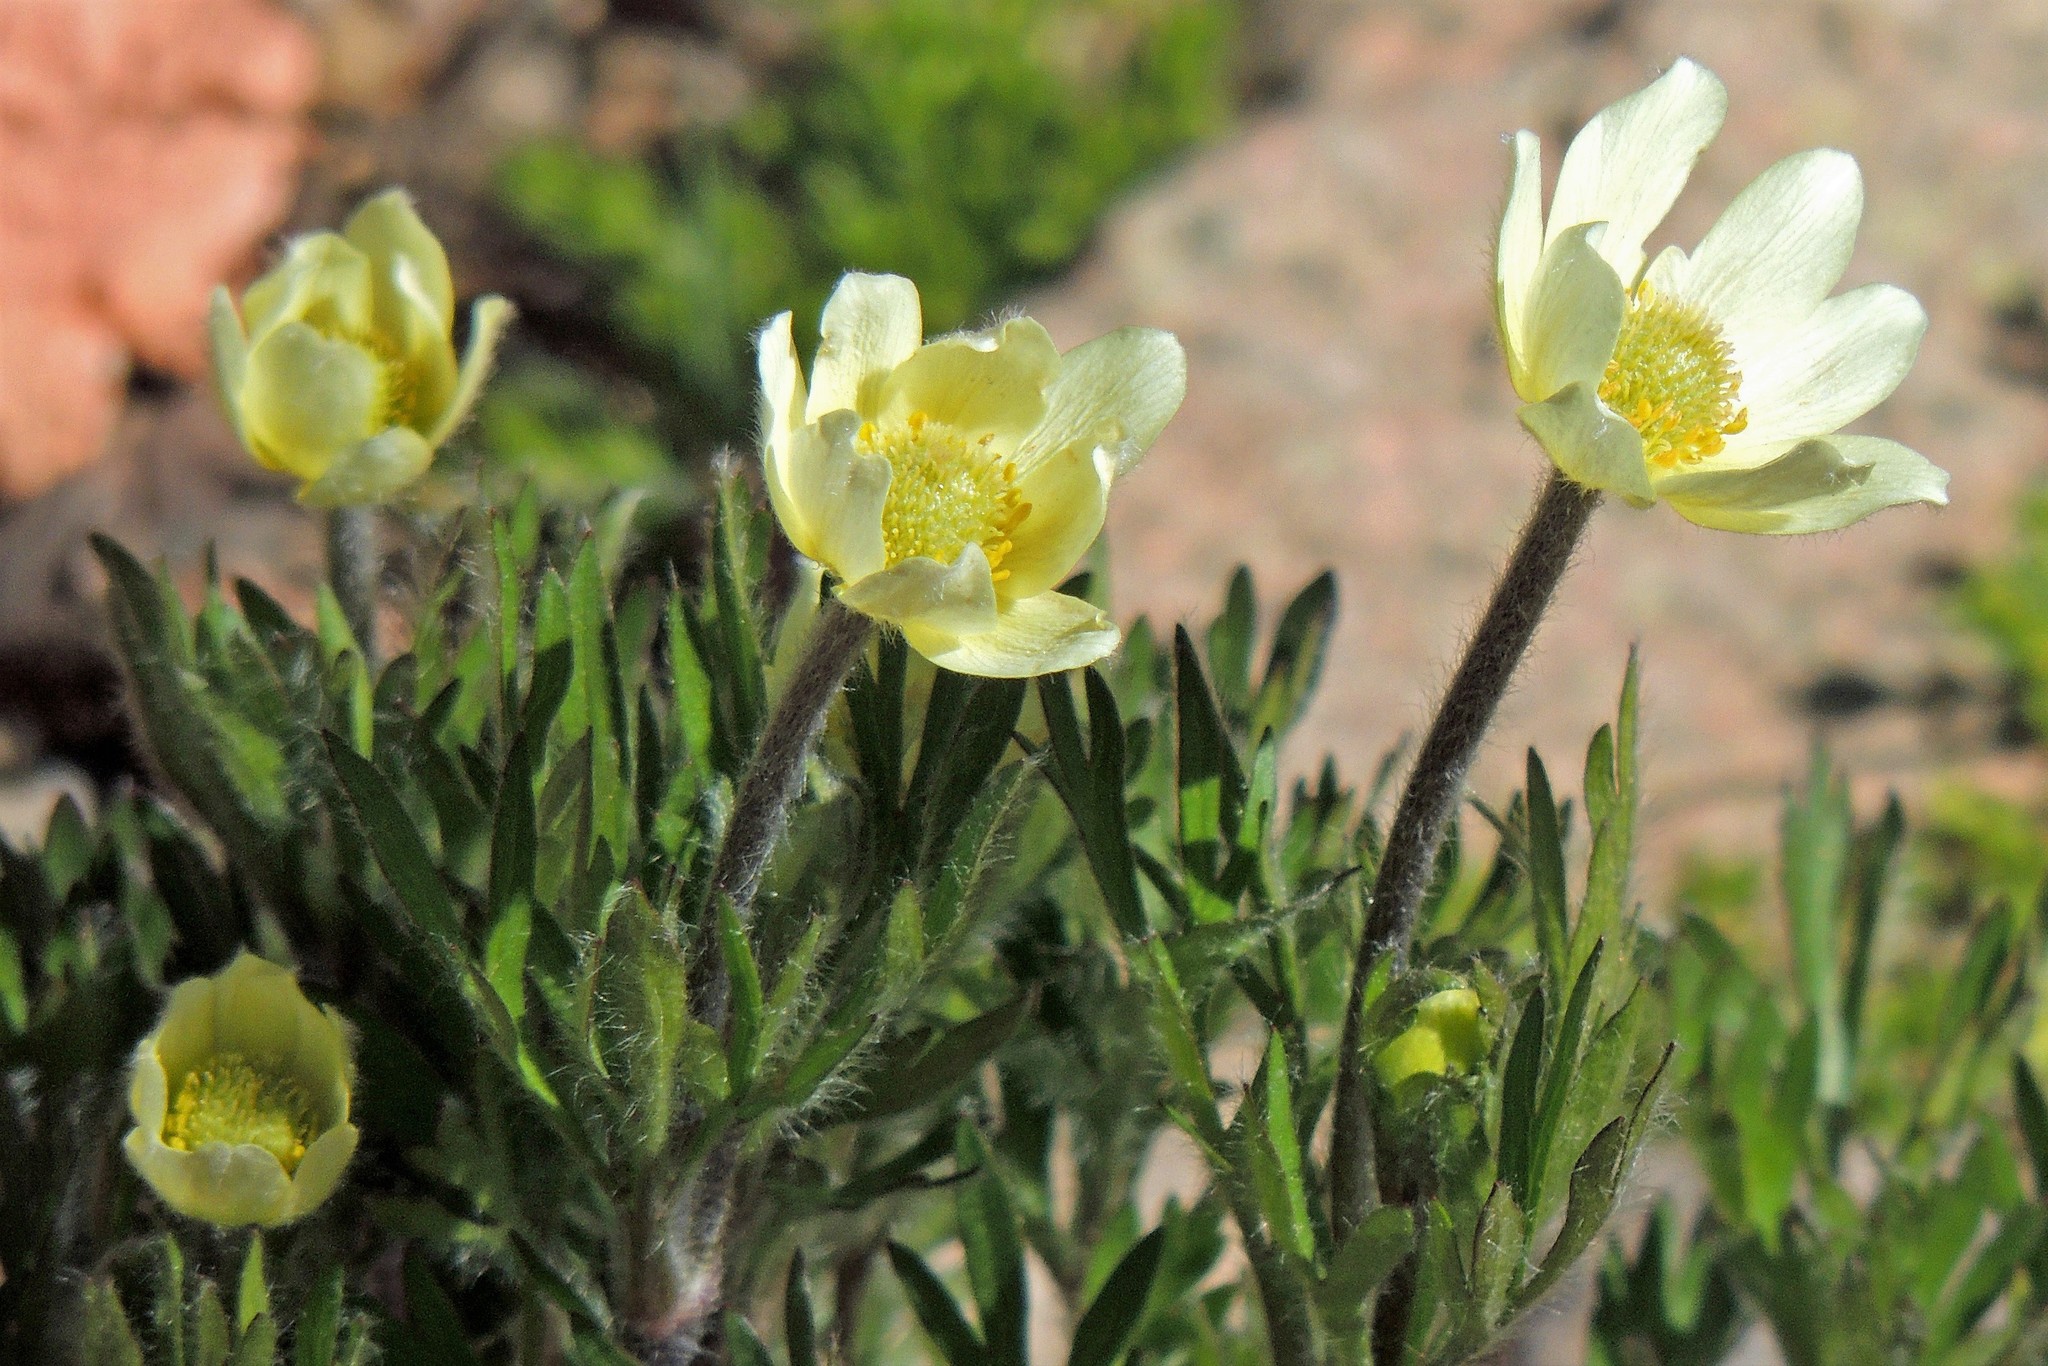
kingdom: Plantae
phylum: Tracheophyta
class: Magnoliopsida
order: Ranunculales
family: Ranunculaceae
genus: Anemone
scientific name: Anemone multifida
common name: Bird's-foot anemone
